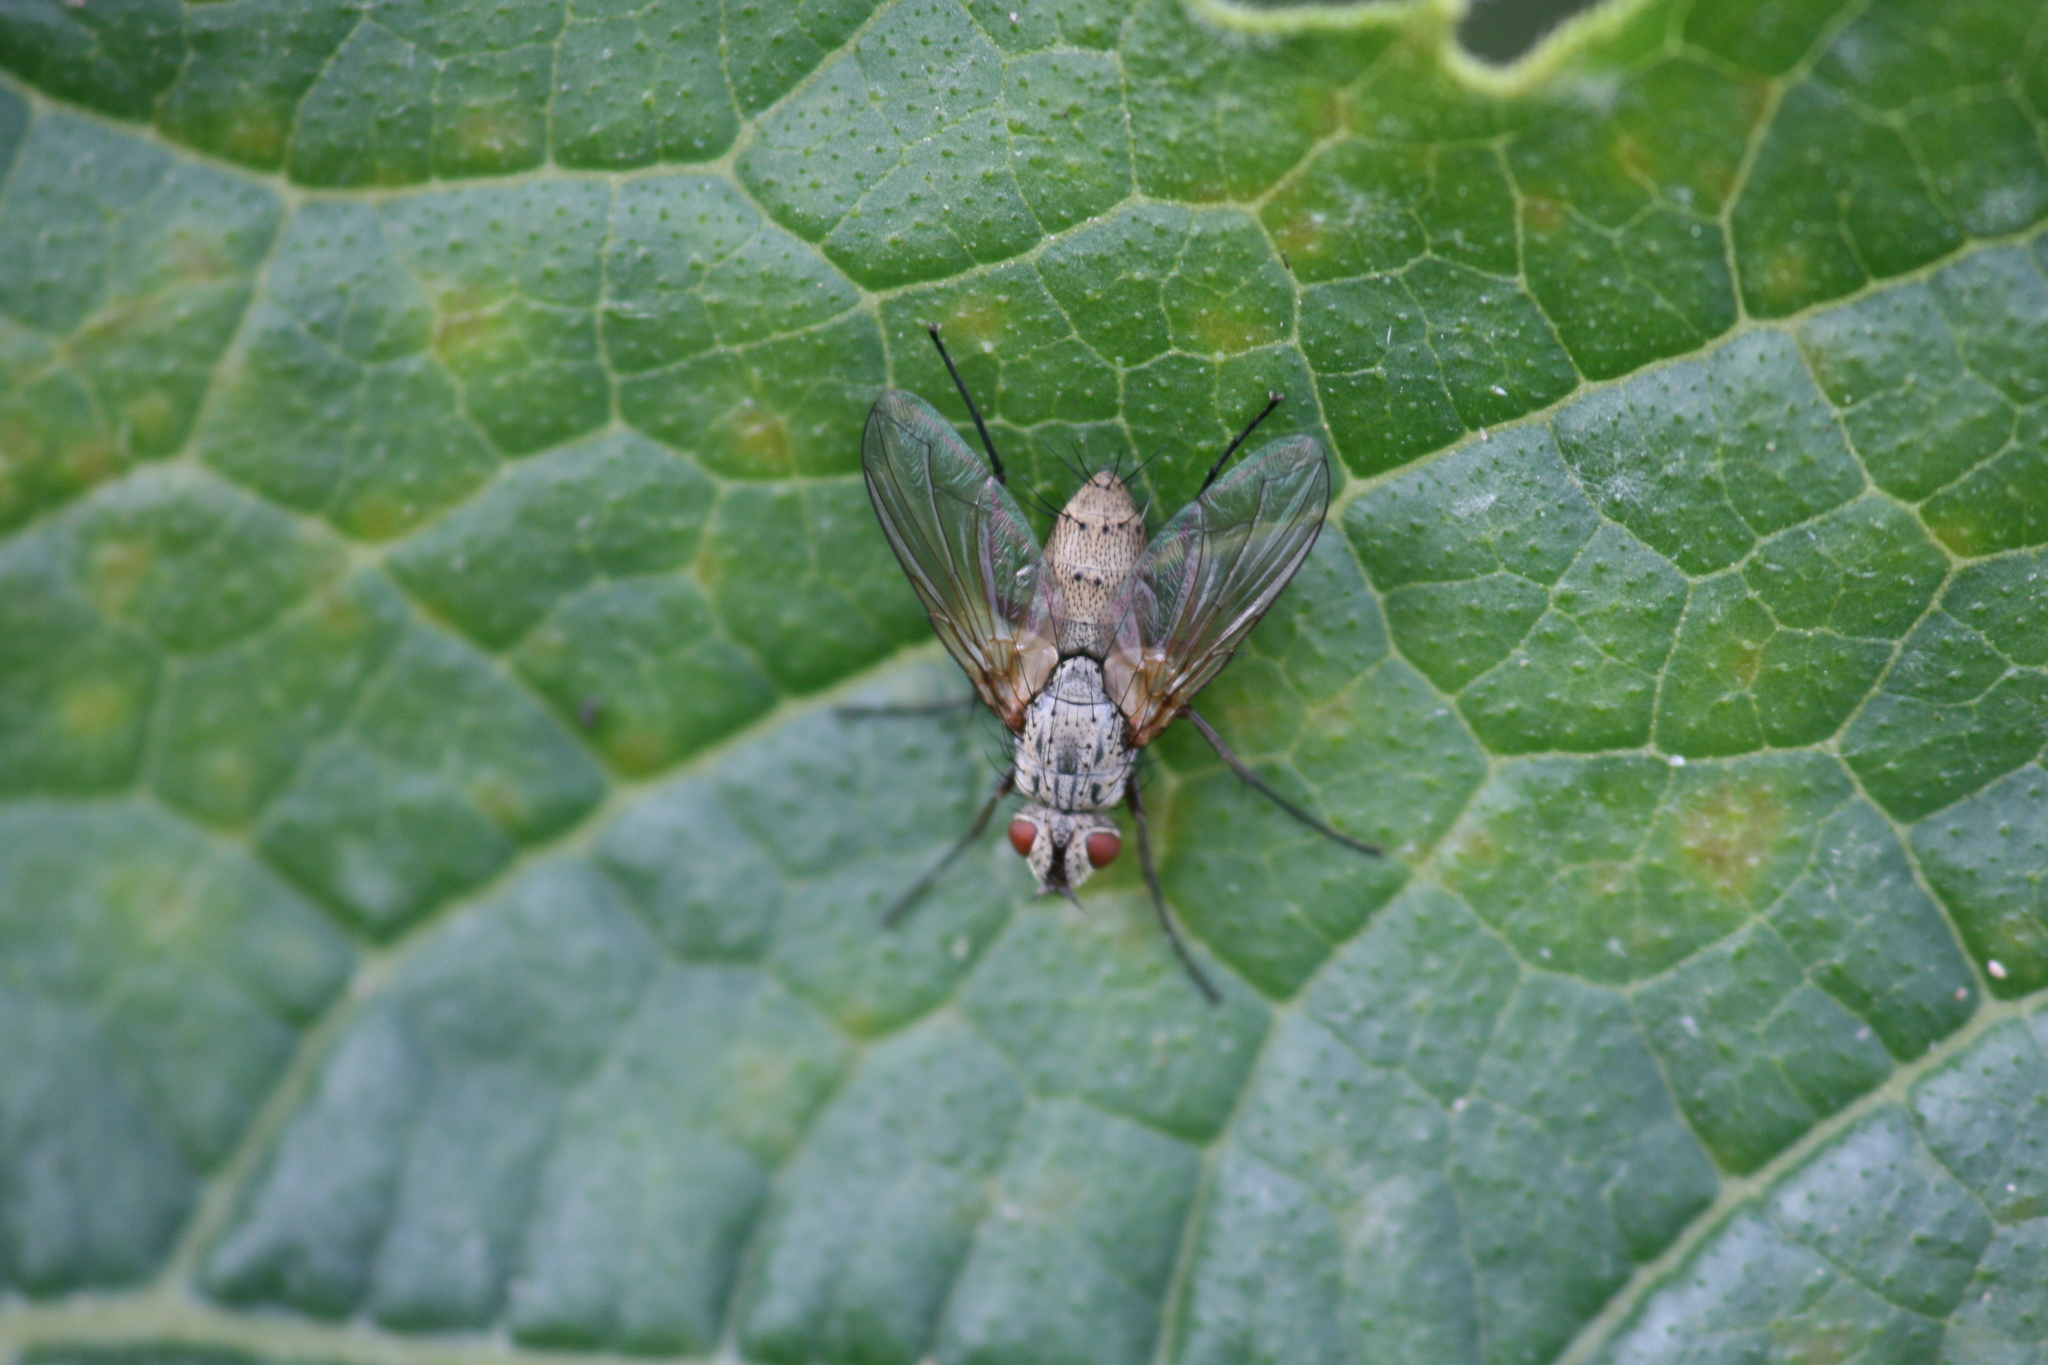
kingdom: Animalia
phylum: Arthropoda
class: Insecta
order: Diptera
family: Tachinidae
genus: Dinera
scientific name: Dinera grisescens
